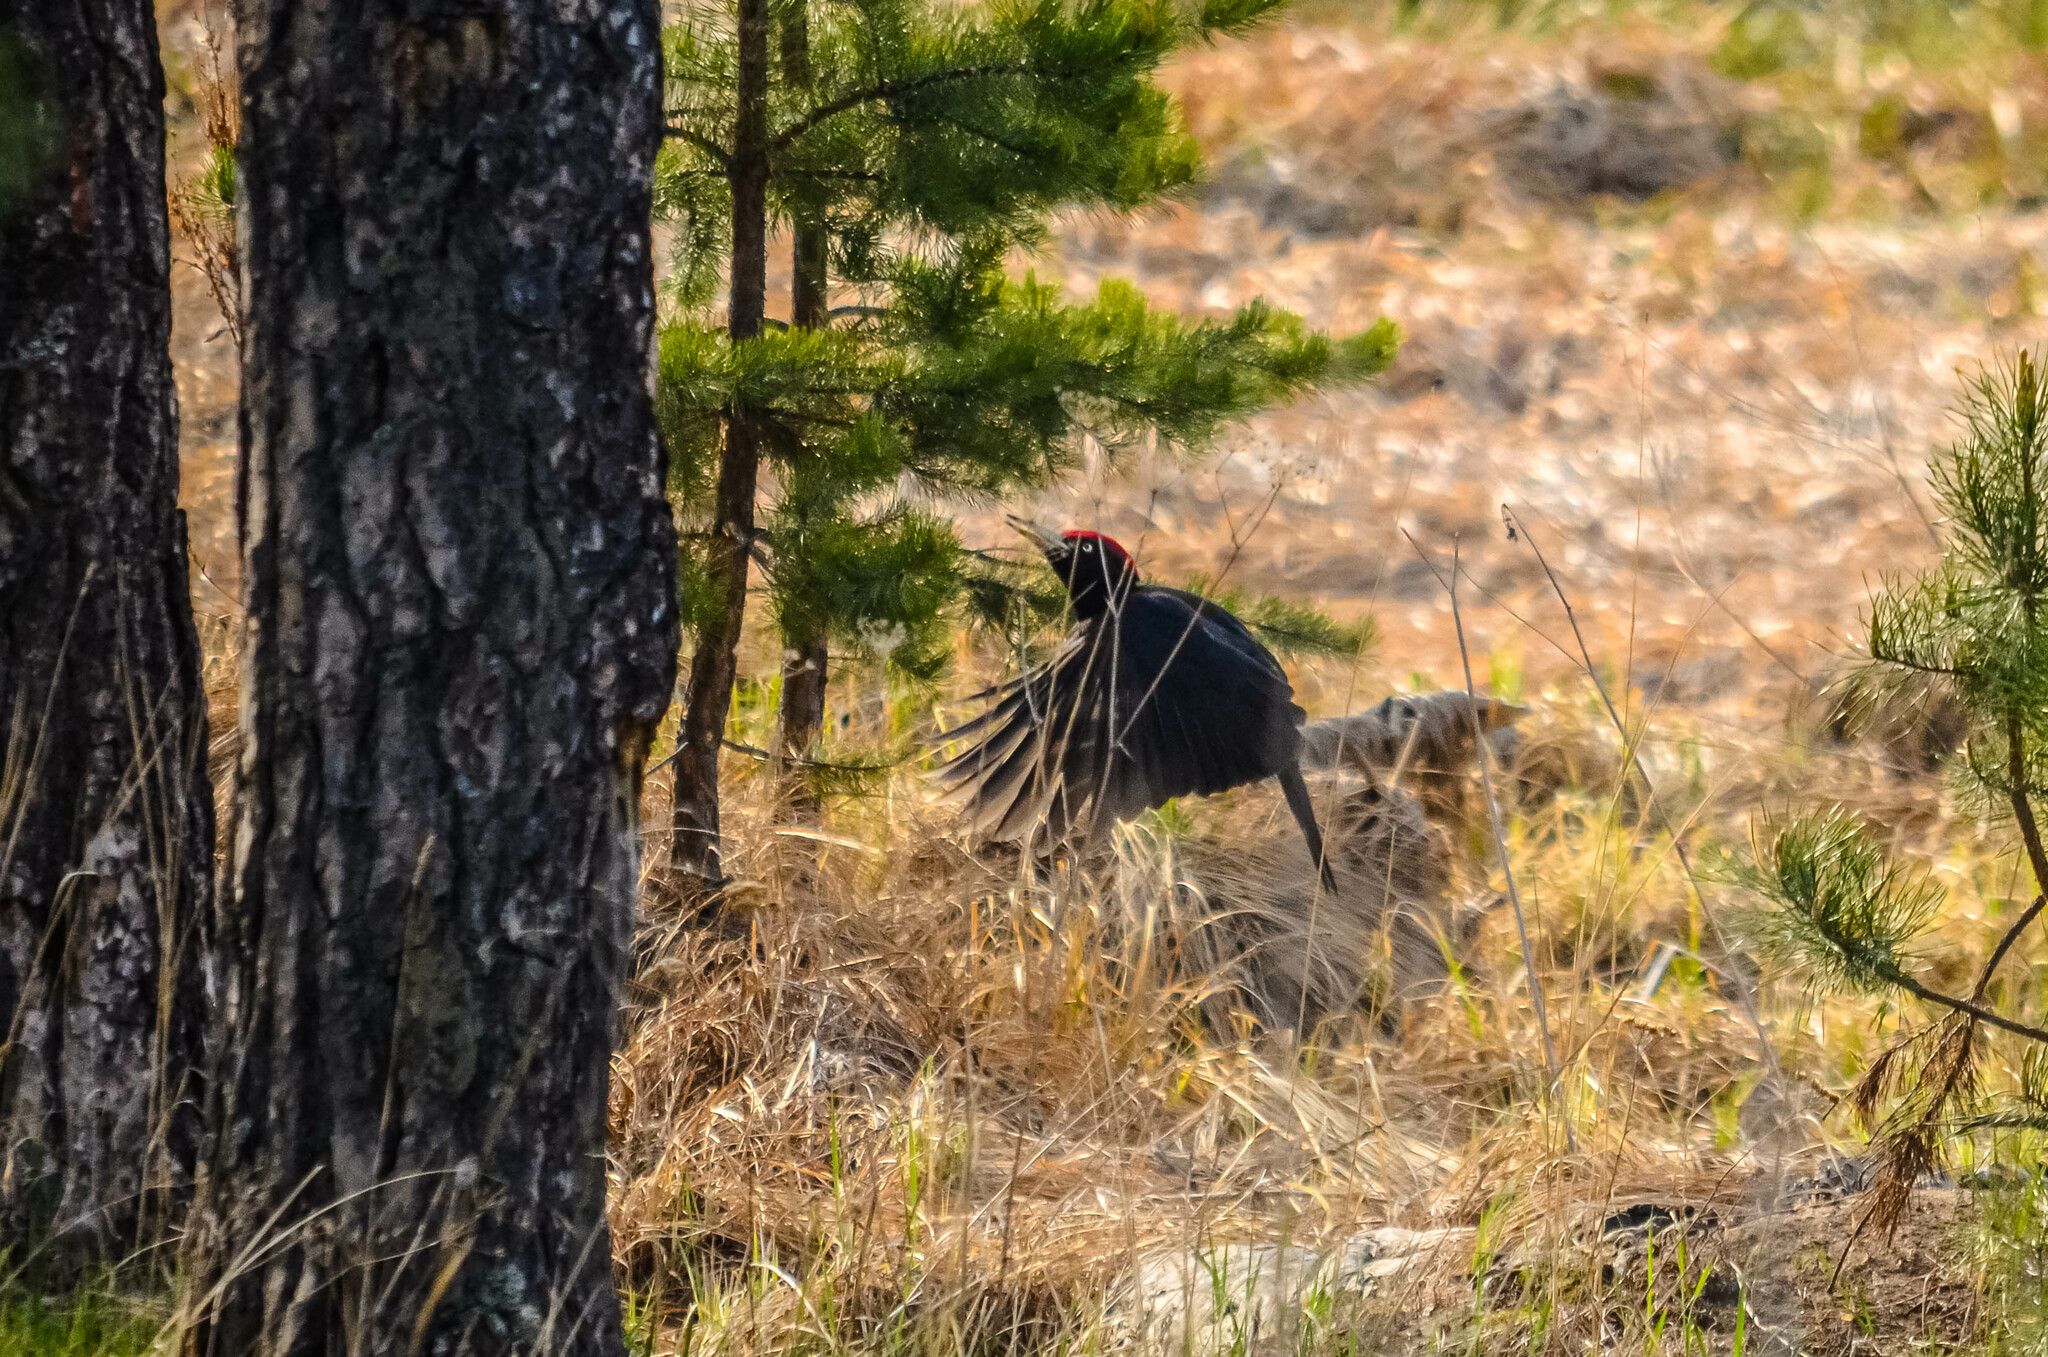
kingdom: Animalia
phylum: Chordata
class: Aves
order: Piciformes
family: Picidae
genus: Dryocopus
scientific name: Dryocopus martius
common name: Black woodpecker
